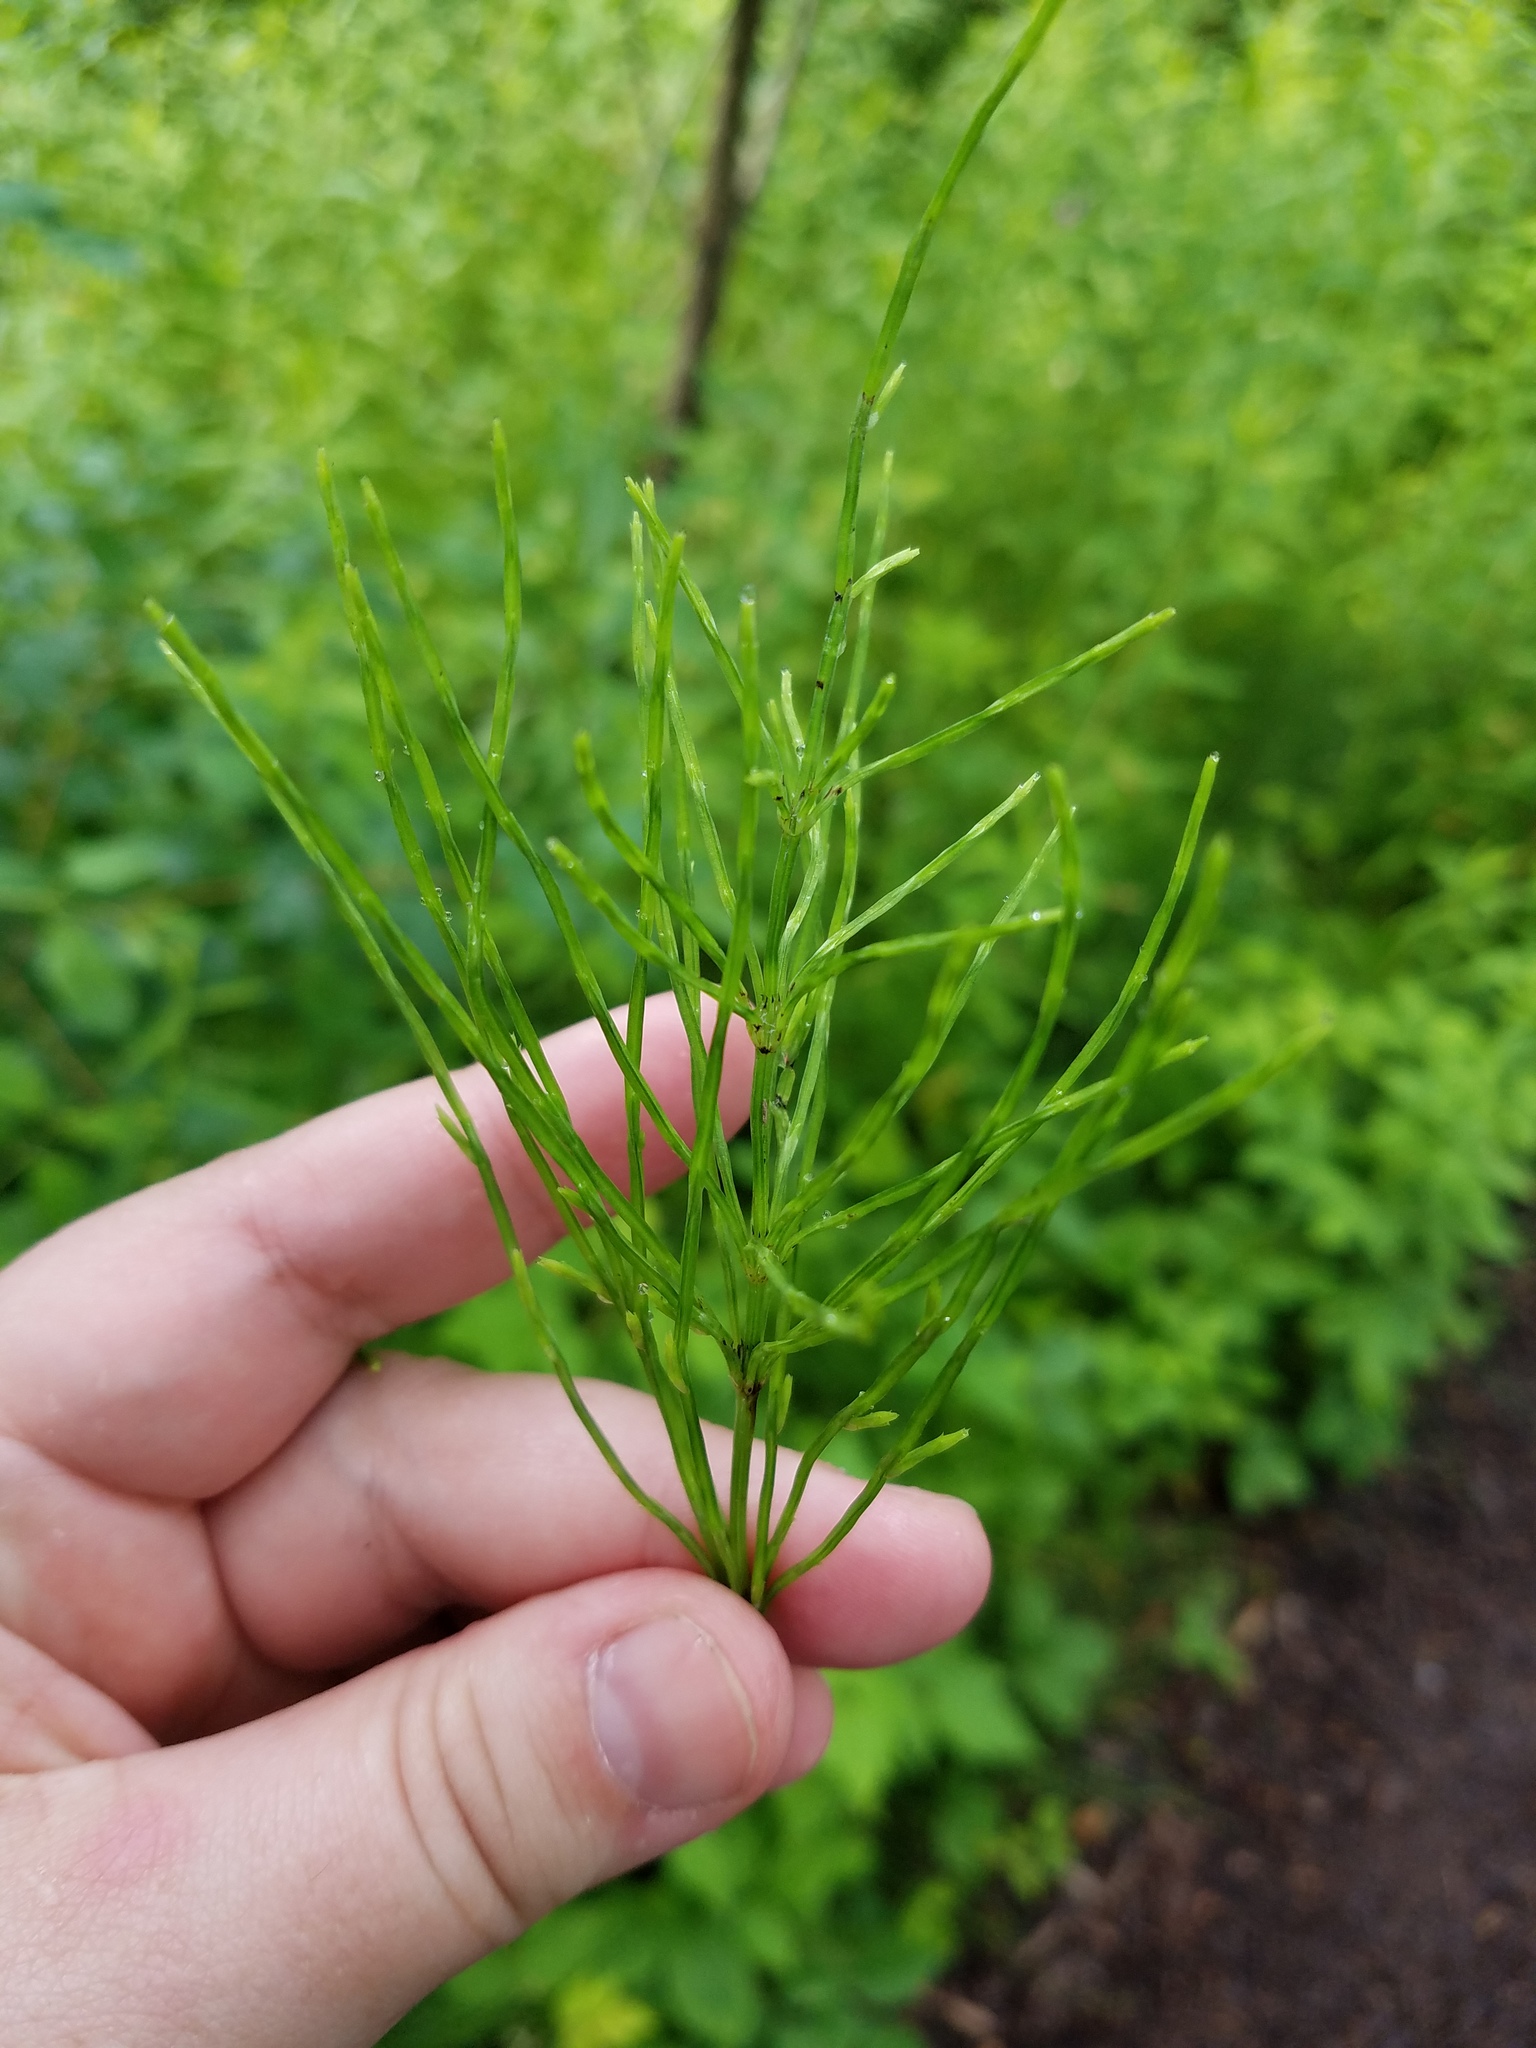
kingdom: Plantae
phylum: Tracheophyta
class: Polypodiopsida
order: Equisetales
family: Equisetaceae
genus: Equisetum
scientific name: Equisetum arvense
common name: Field horsetail
